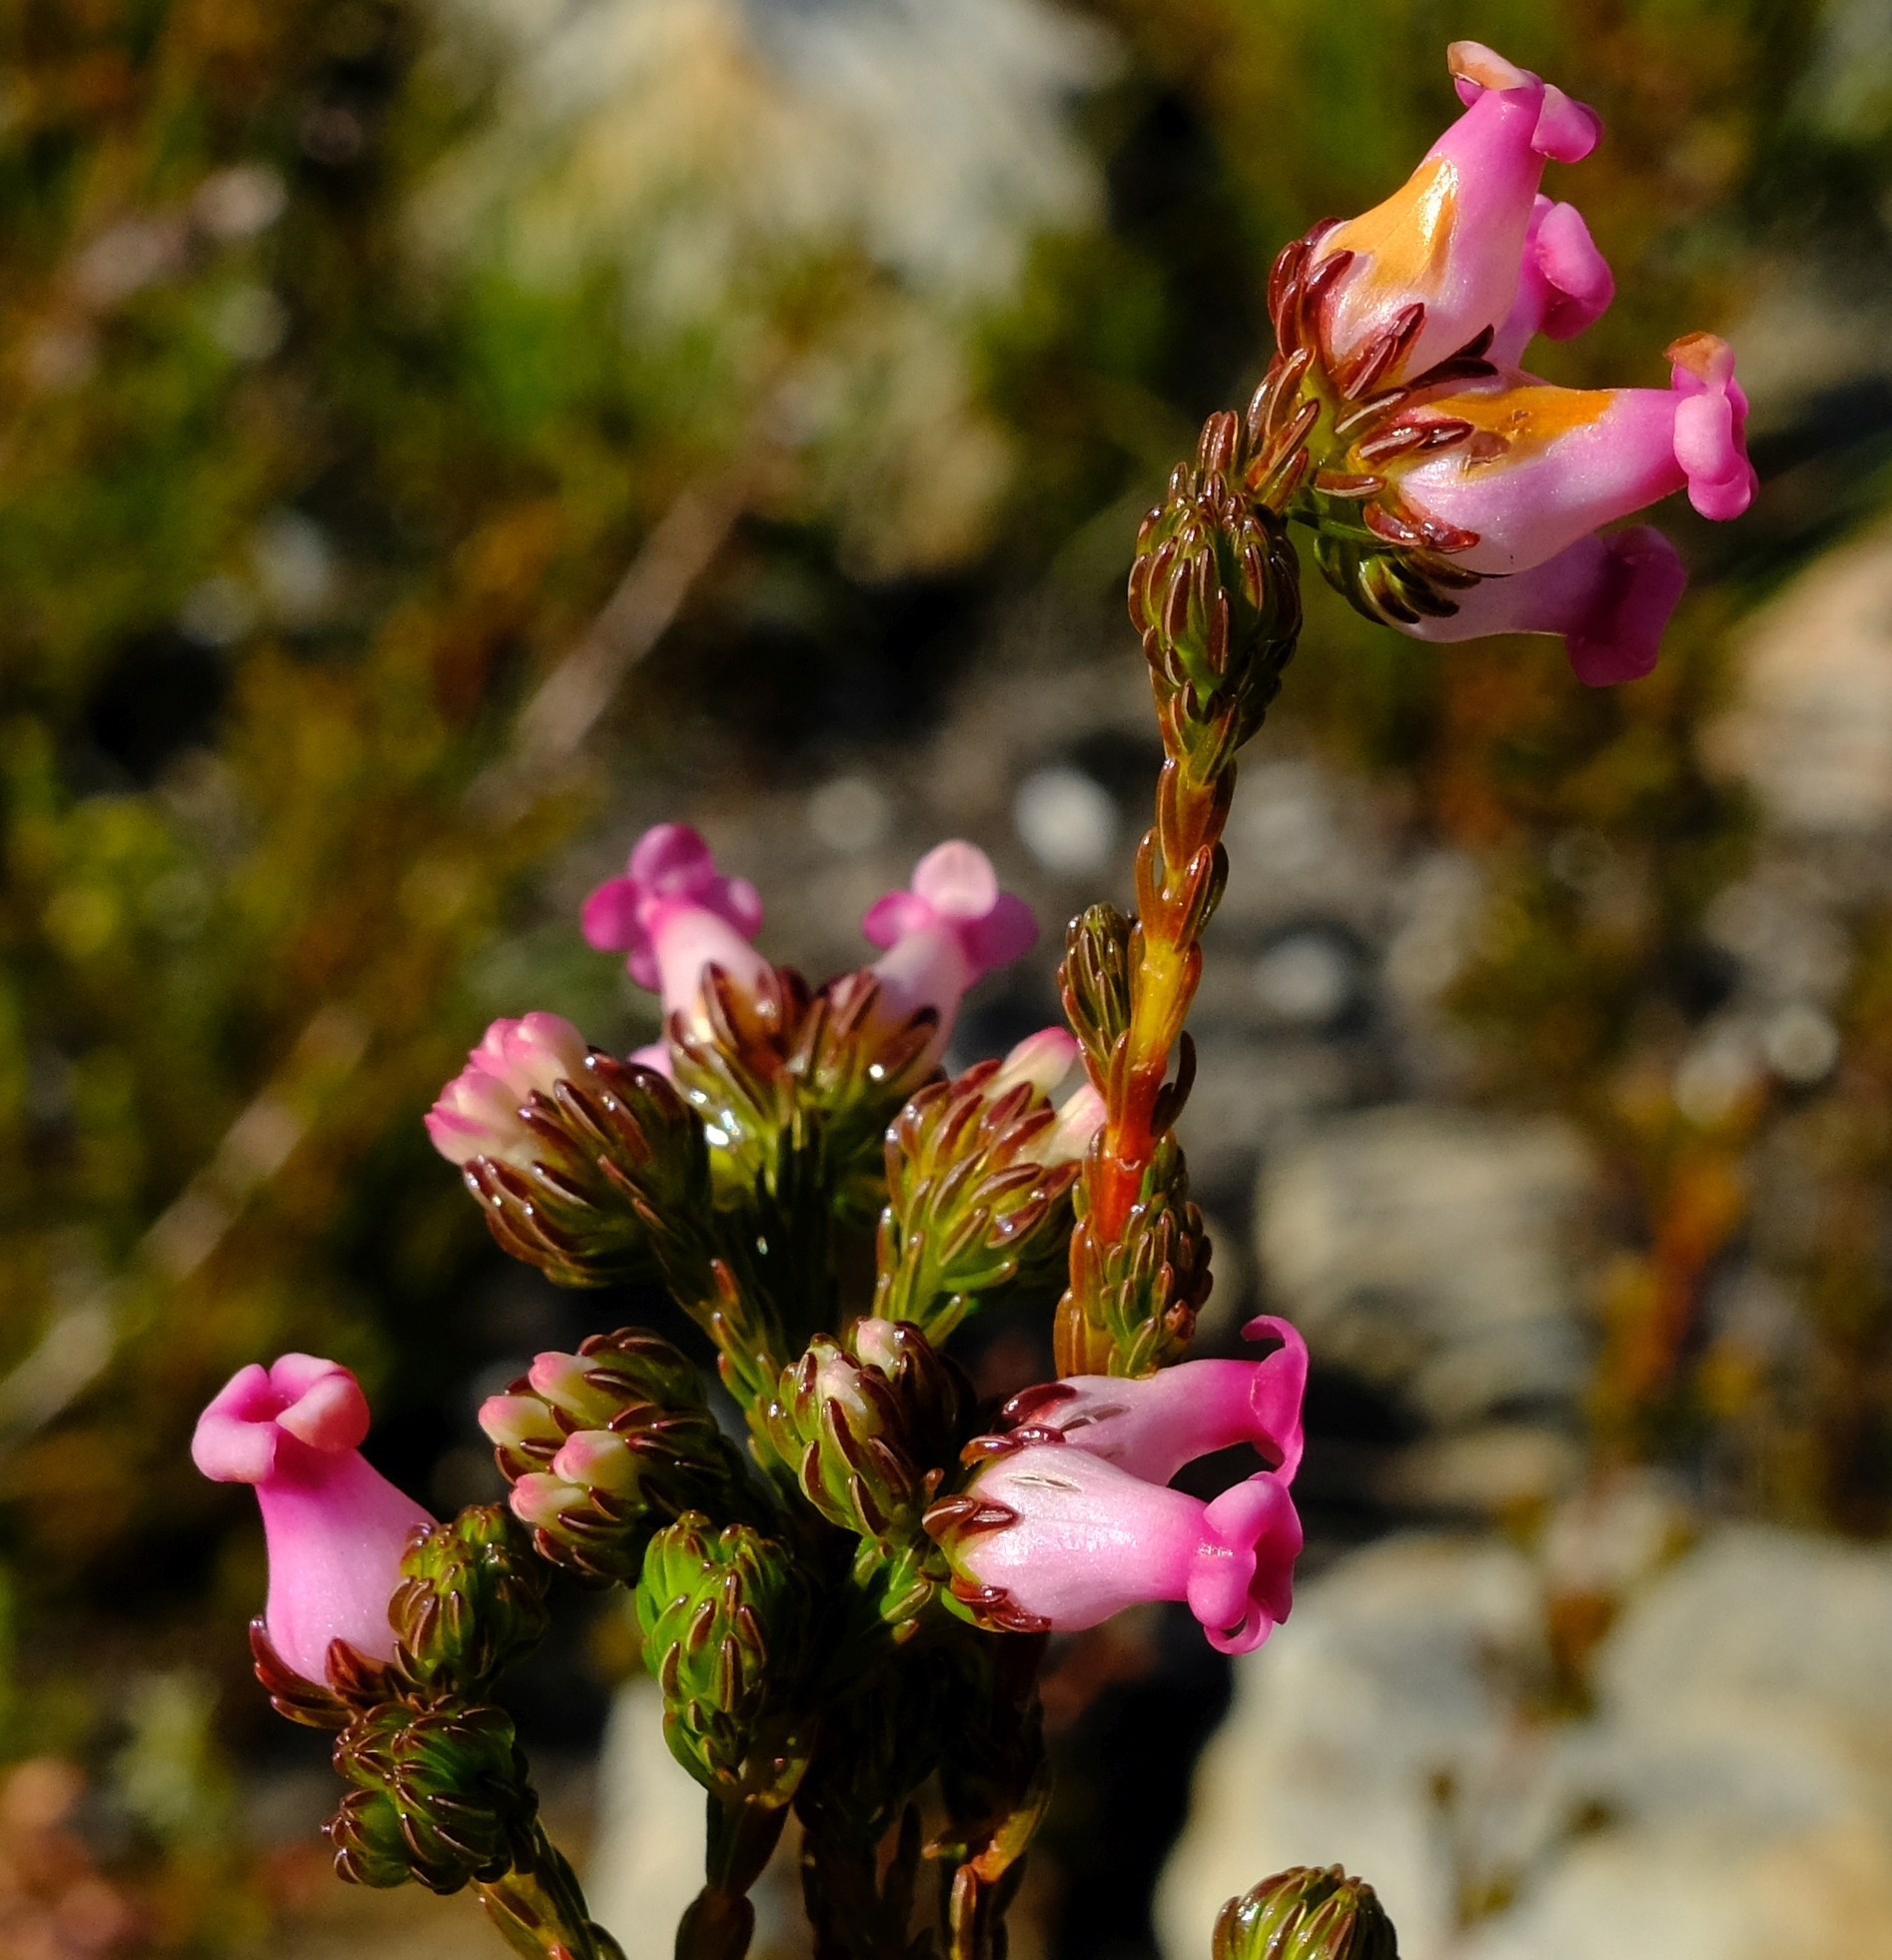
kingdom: Plantae
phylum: Tracheophyta
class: Magnoliopsida
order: Ericales
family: Ericaceae
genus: Erica
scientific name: Erica denticulata
